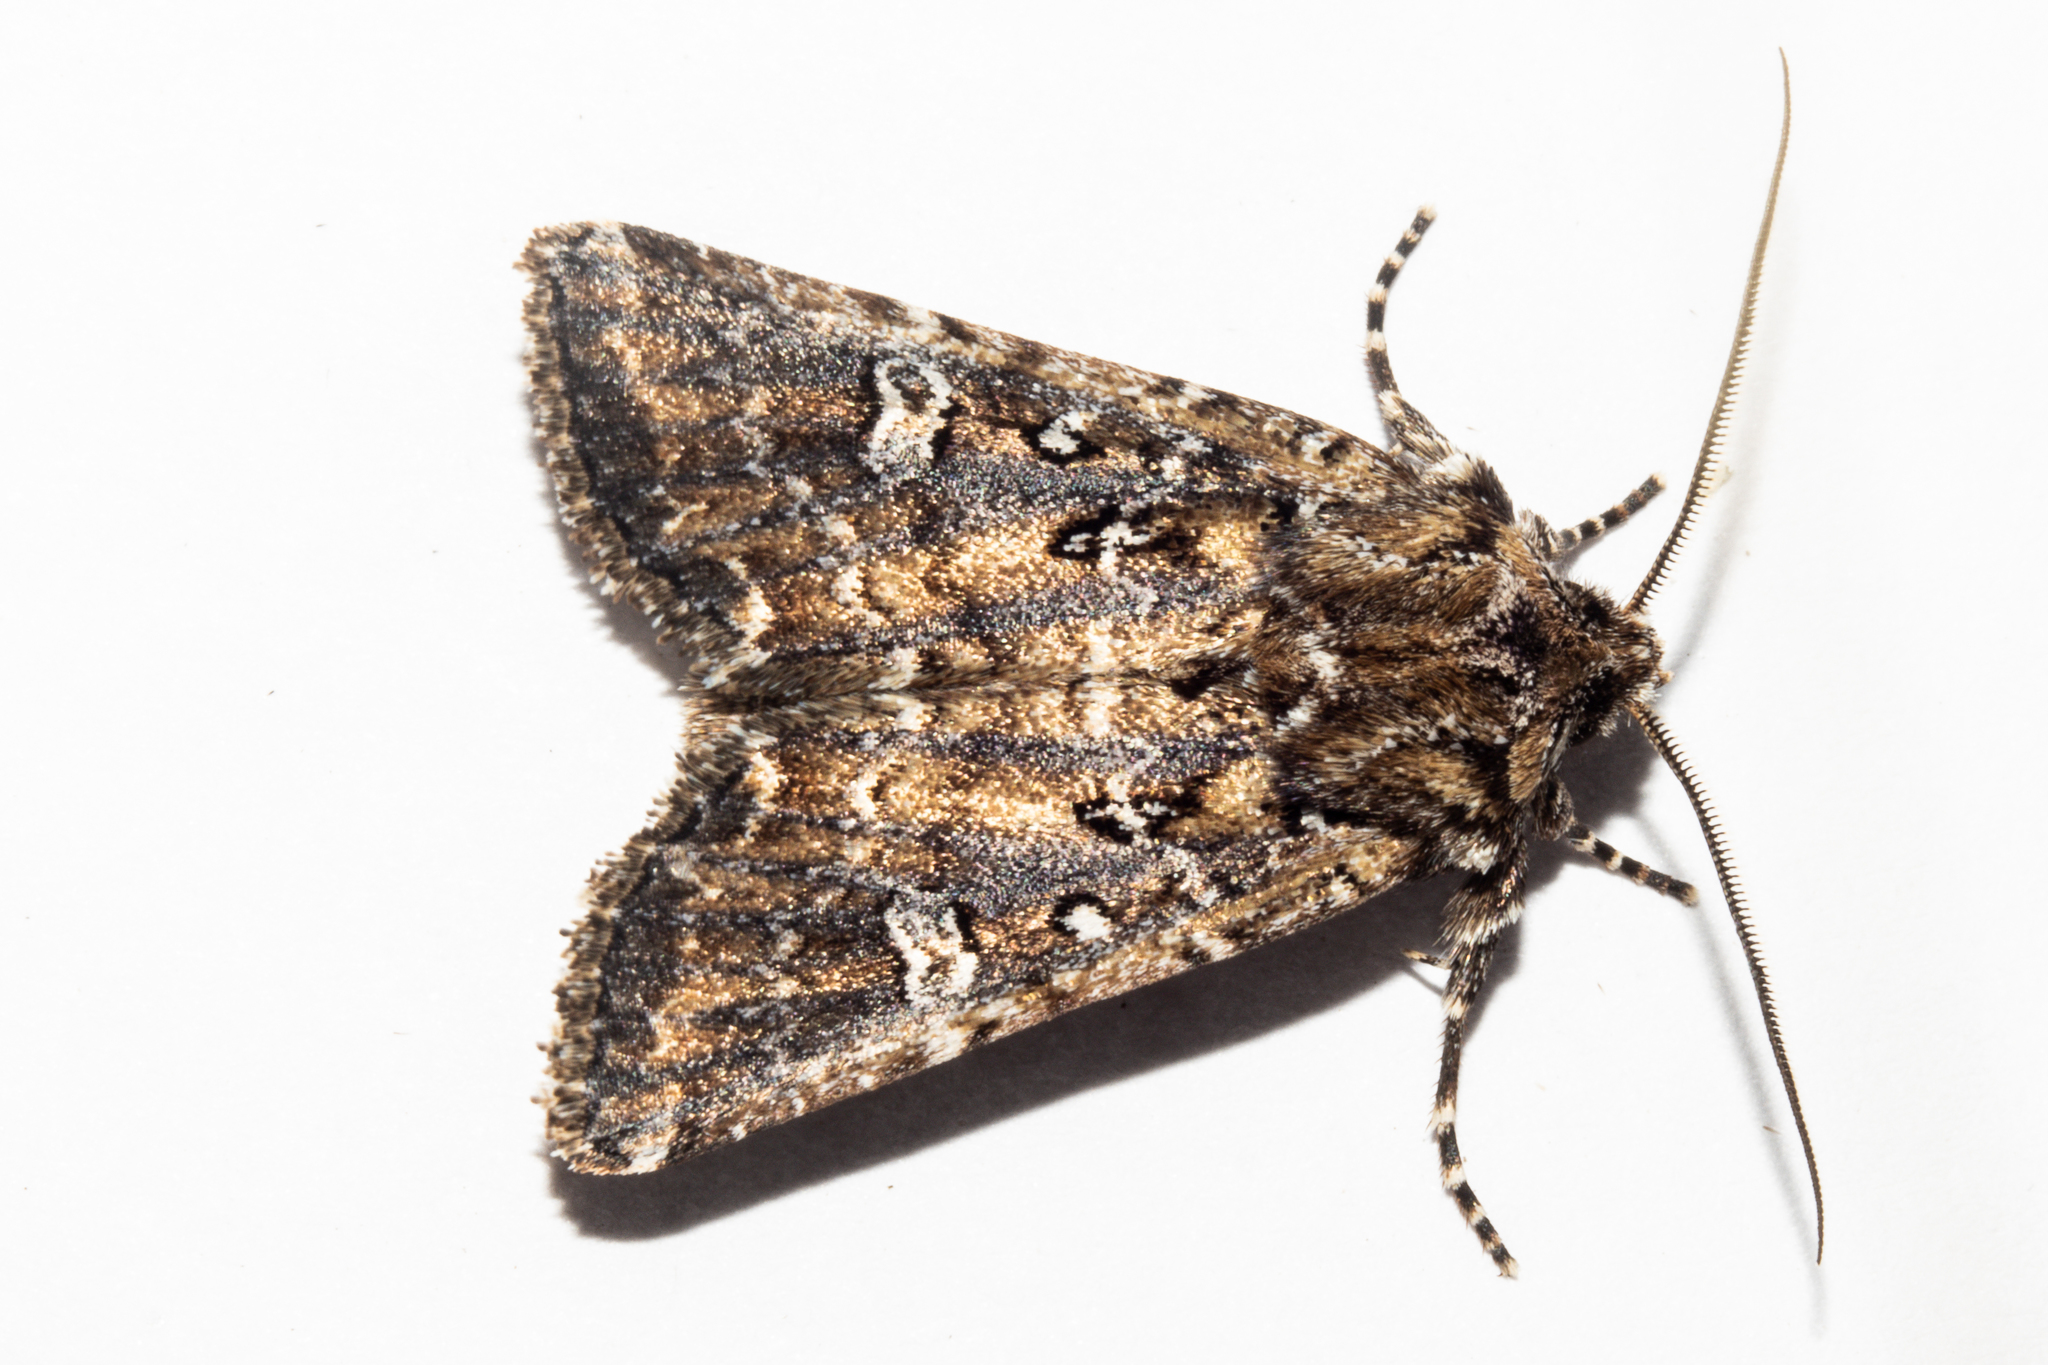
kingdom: Animalia
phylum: Arthropoda
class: Insecta
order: Lepidoptera
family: Noctuidae
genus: Ichneutica
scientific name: Ichneutica lithias
